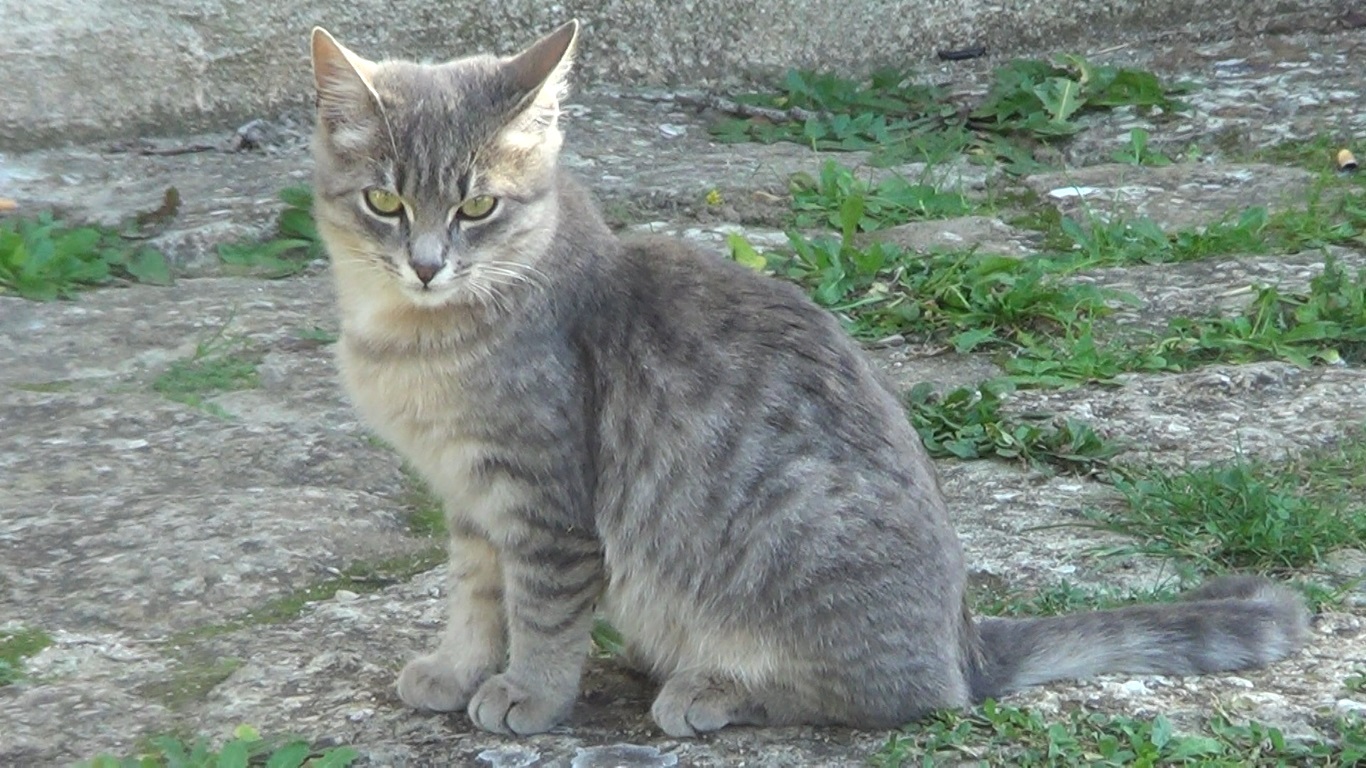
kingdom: Animalia
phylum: Chordata
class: Mammalia
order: Carnivora
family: Felidae
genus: Felis
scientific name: Felis catus
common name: Domestic cat
